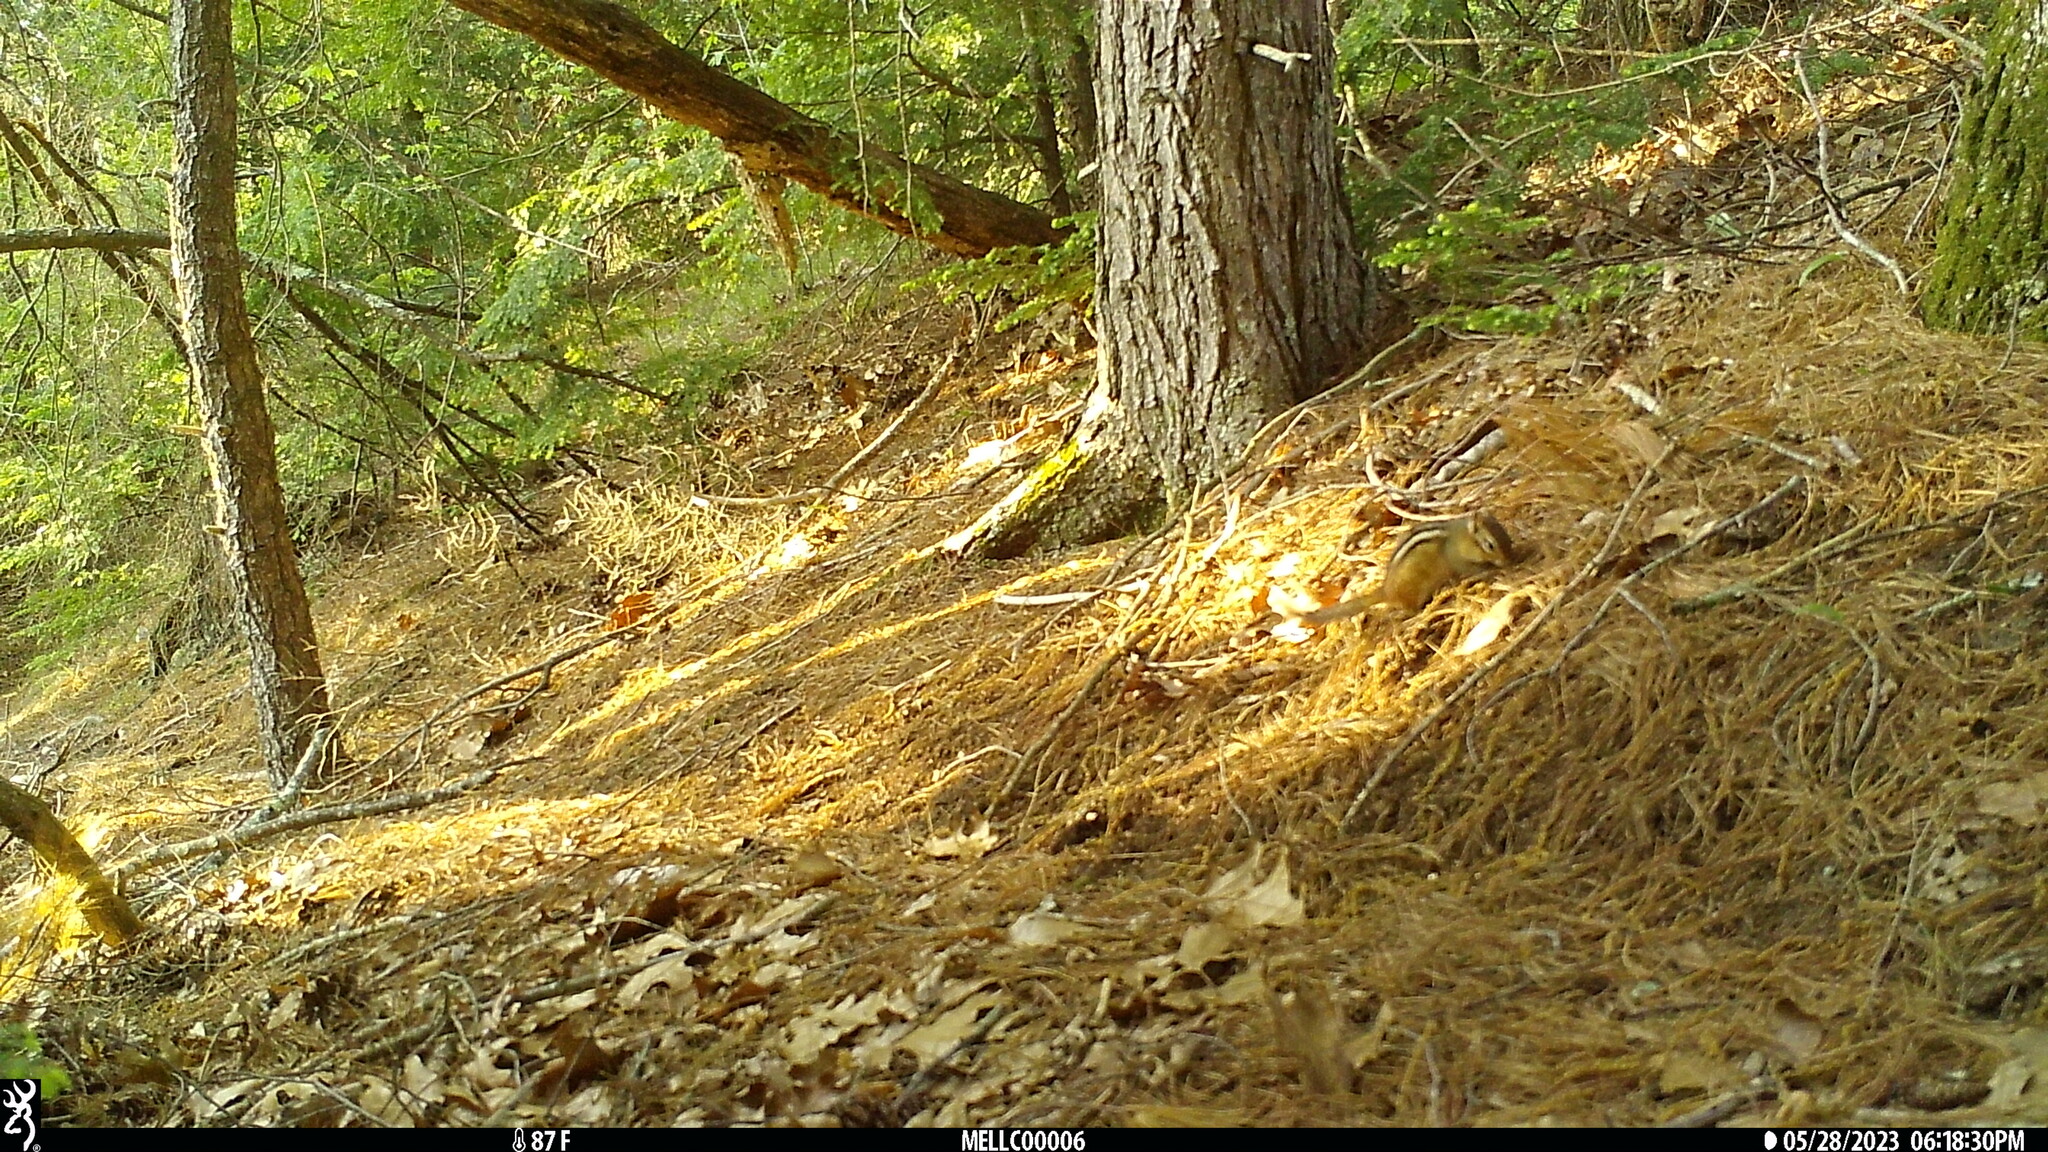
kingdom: Animalia
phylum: Chordata
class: Mammalia
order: Rodentia
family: Sciuridae
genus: Tamias
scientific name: Tamias striatus
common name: Eastern chipmunk
